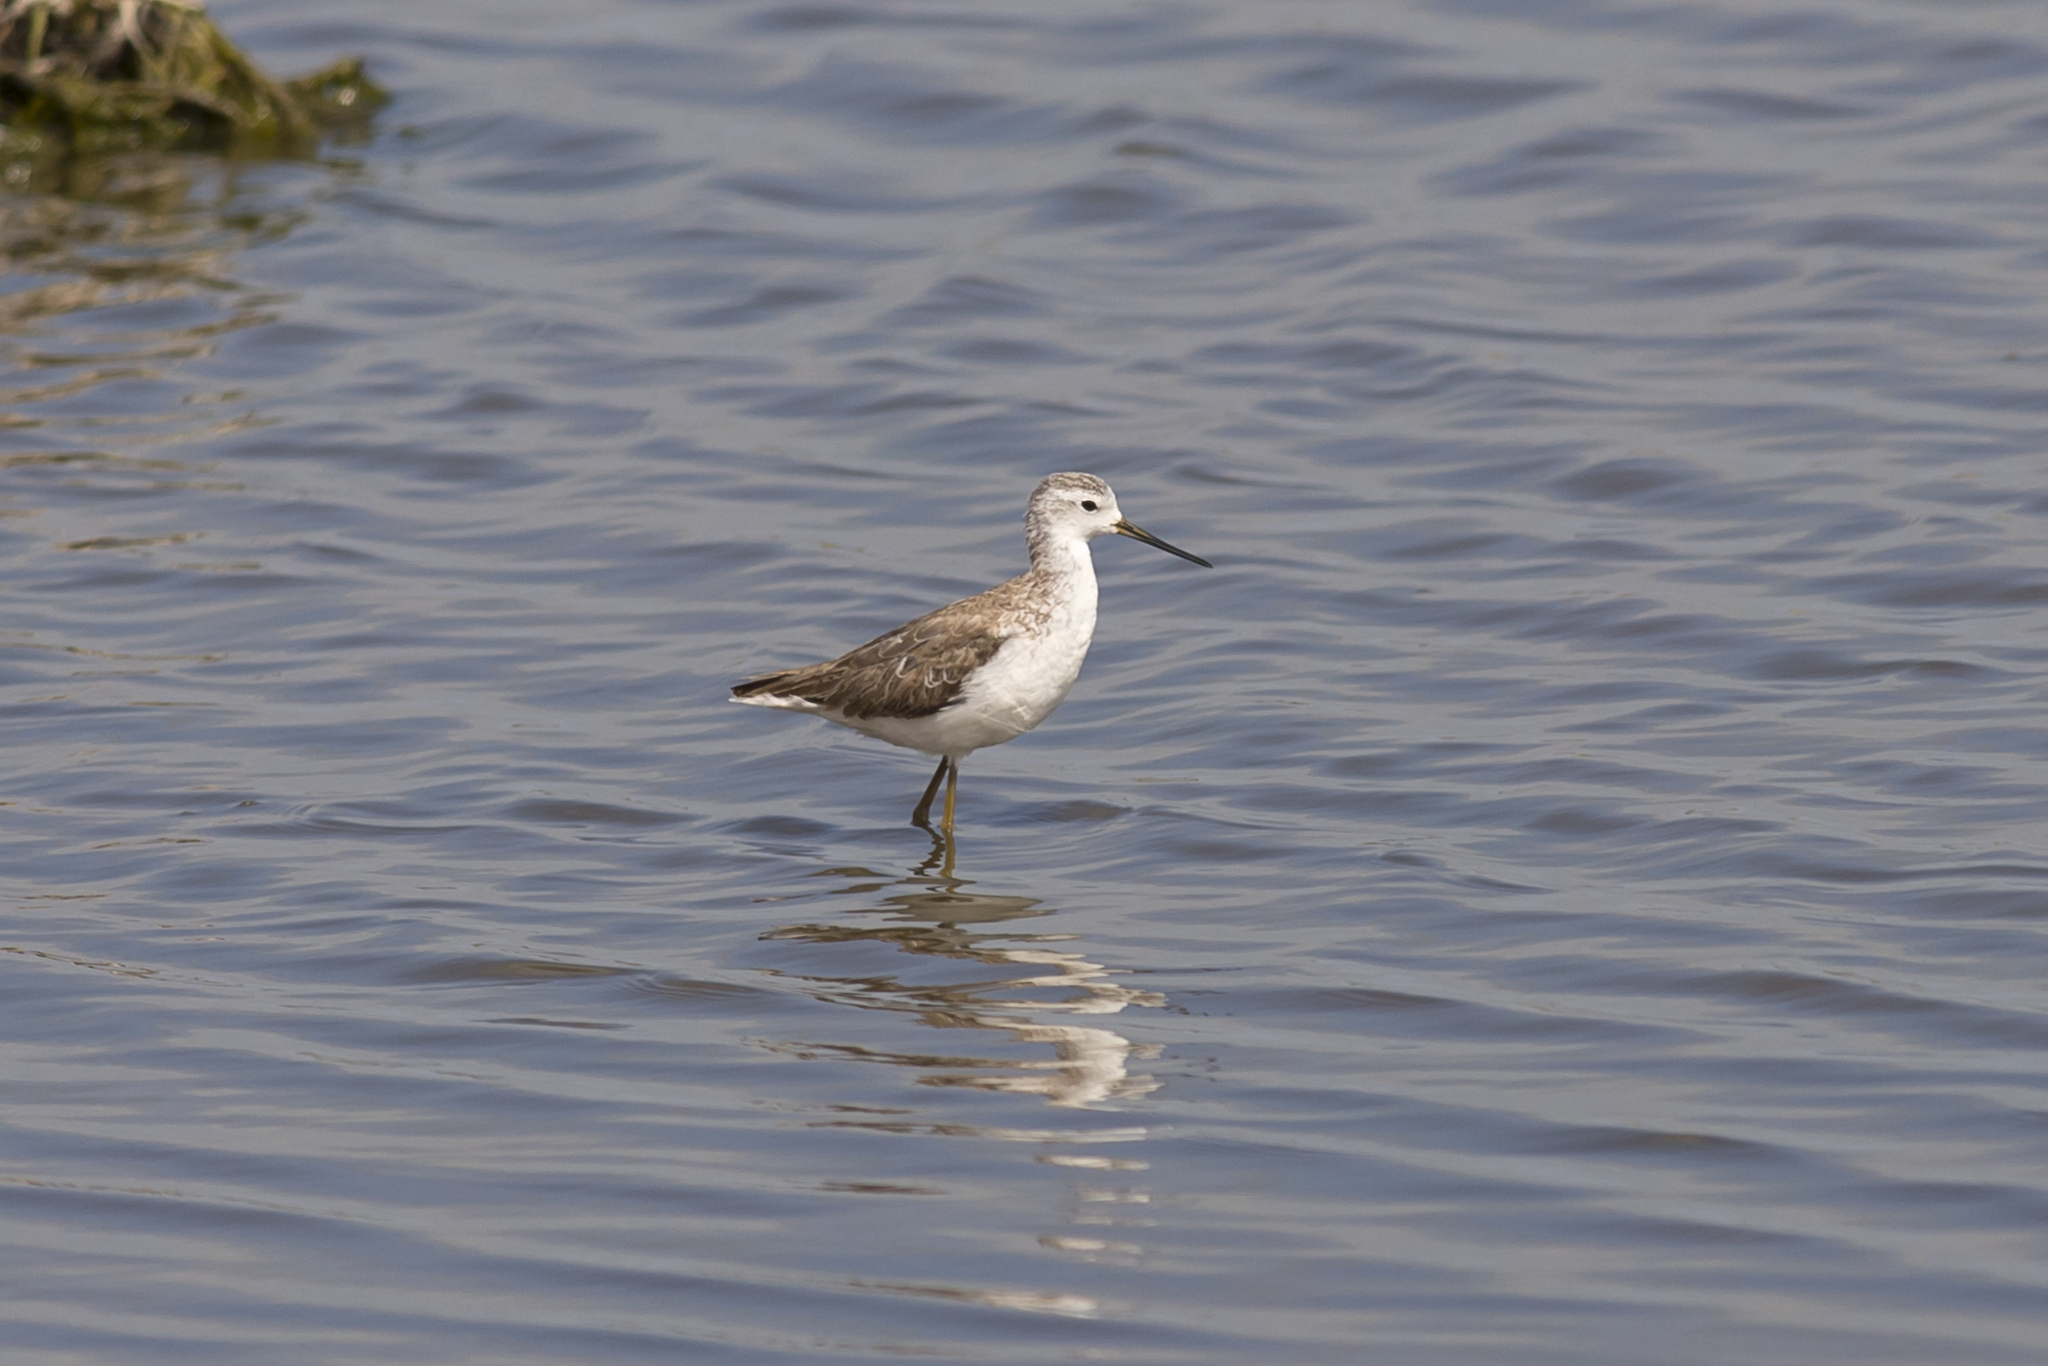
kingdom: Animalia
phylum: Chordata
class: Aves
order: Charadriiformes
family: Scolopacidae
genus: Tringa
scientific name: Tringa stagnatilis
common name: Marsh sandpiper
